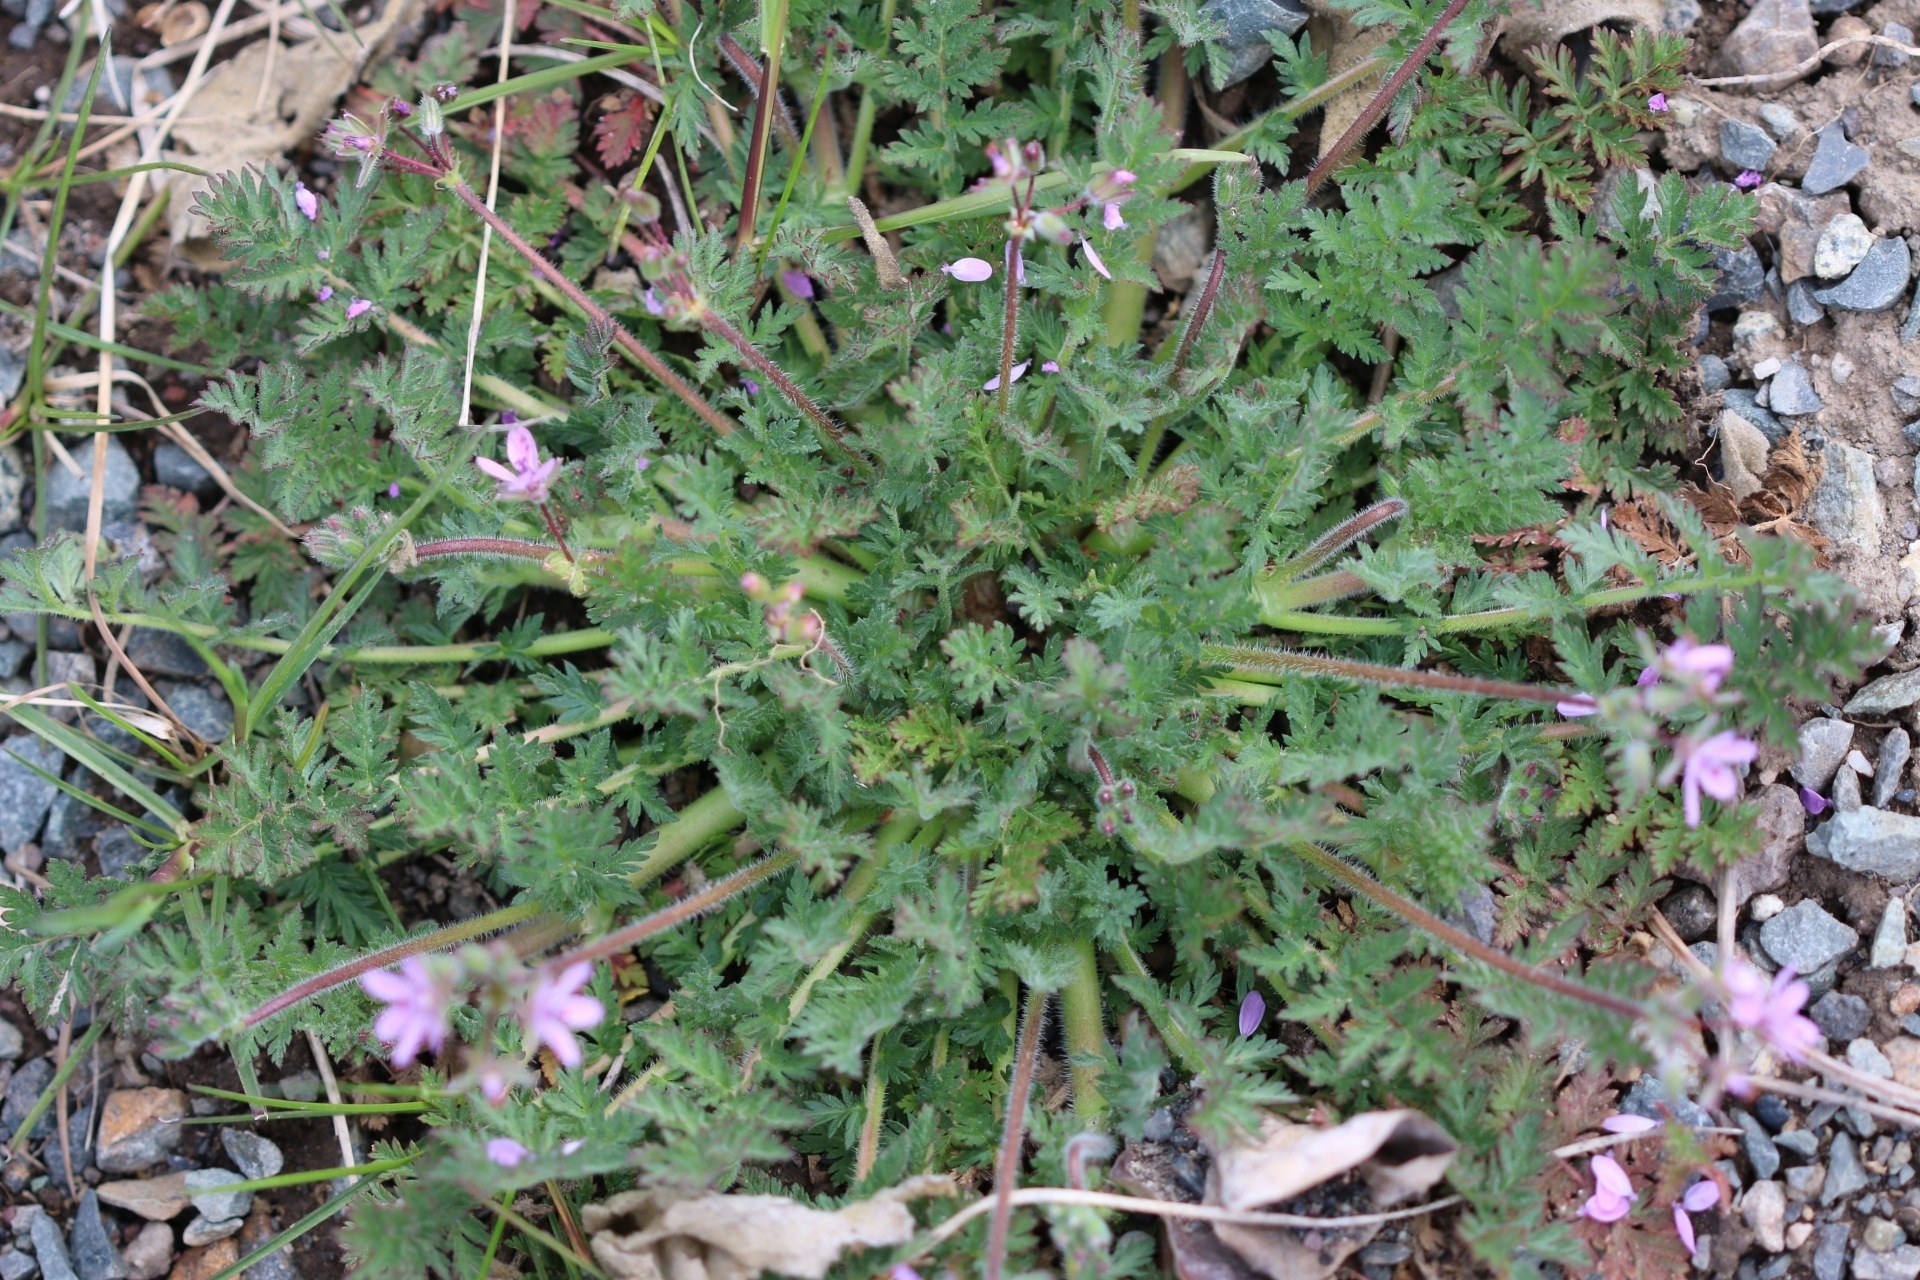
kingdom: Plantae
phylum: Tracheophyta
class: Magnoliopsida
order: Geraniales
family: Geraniaceae
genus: Erodium
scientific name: Erodium cicutarium
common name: Common stork's-bill
